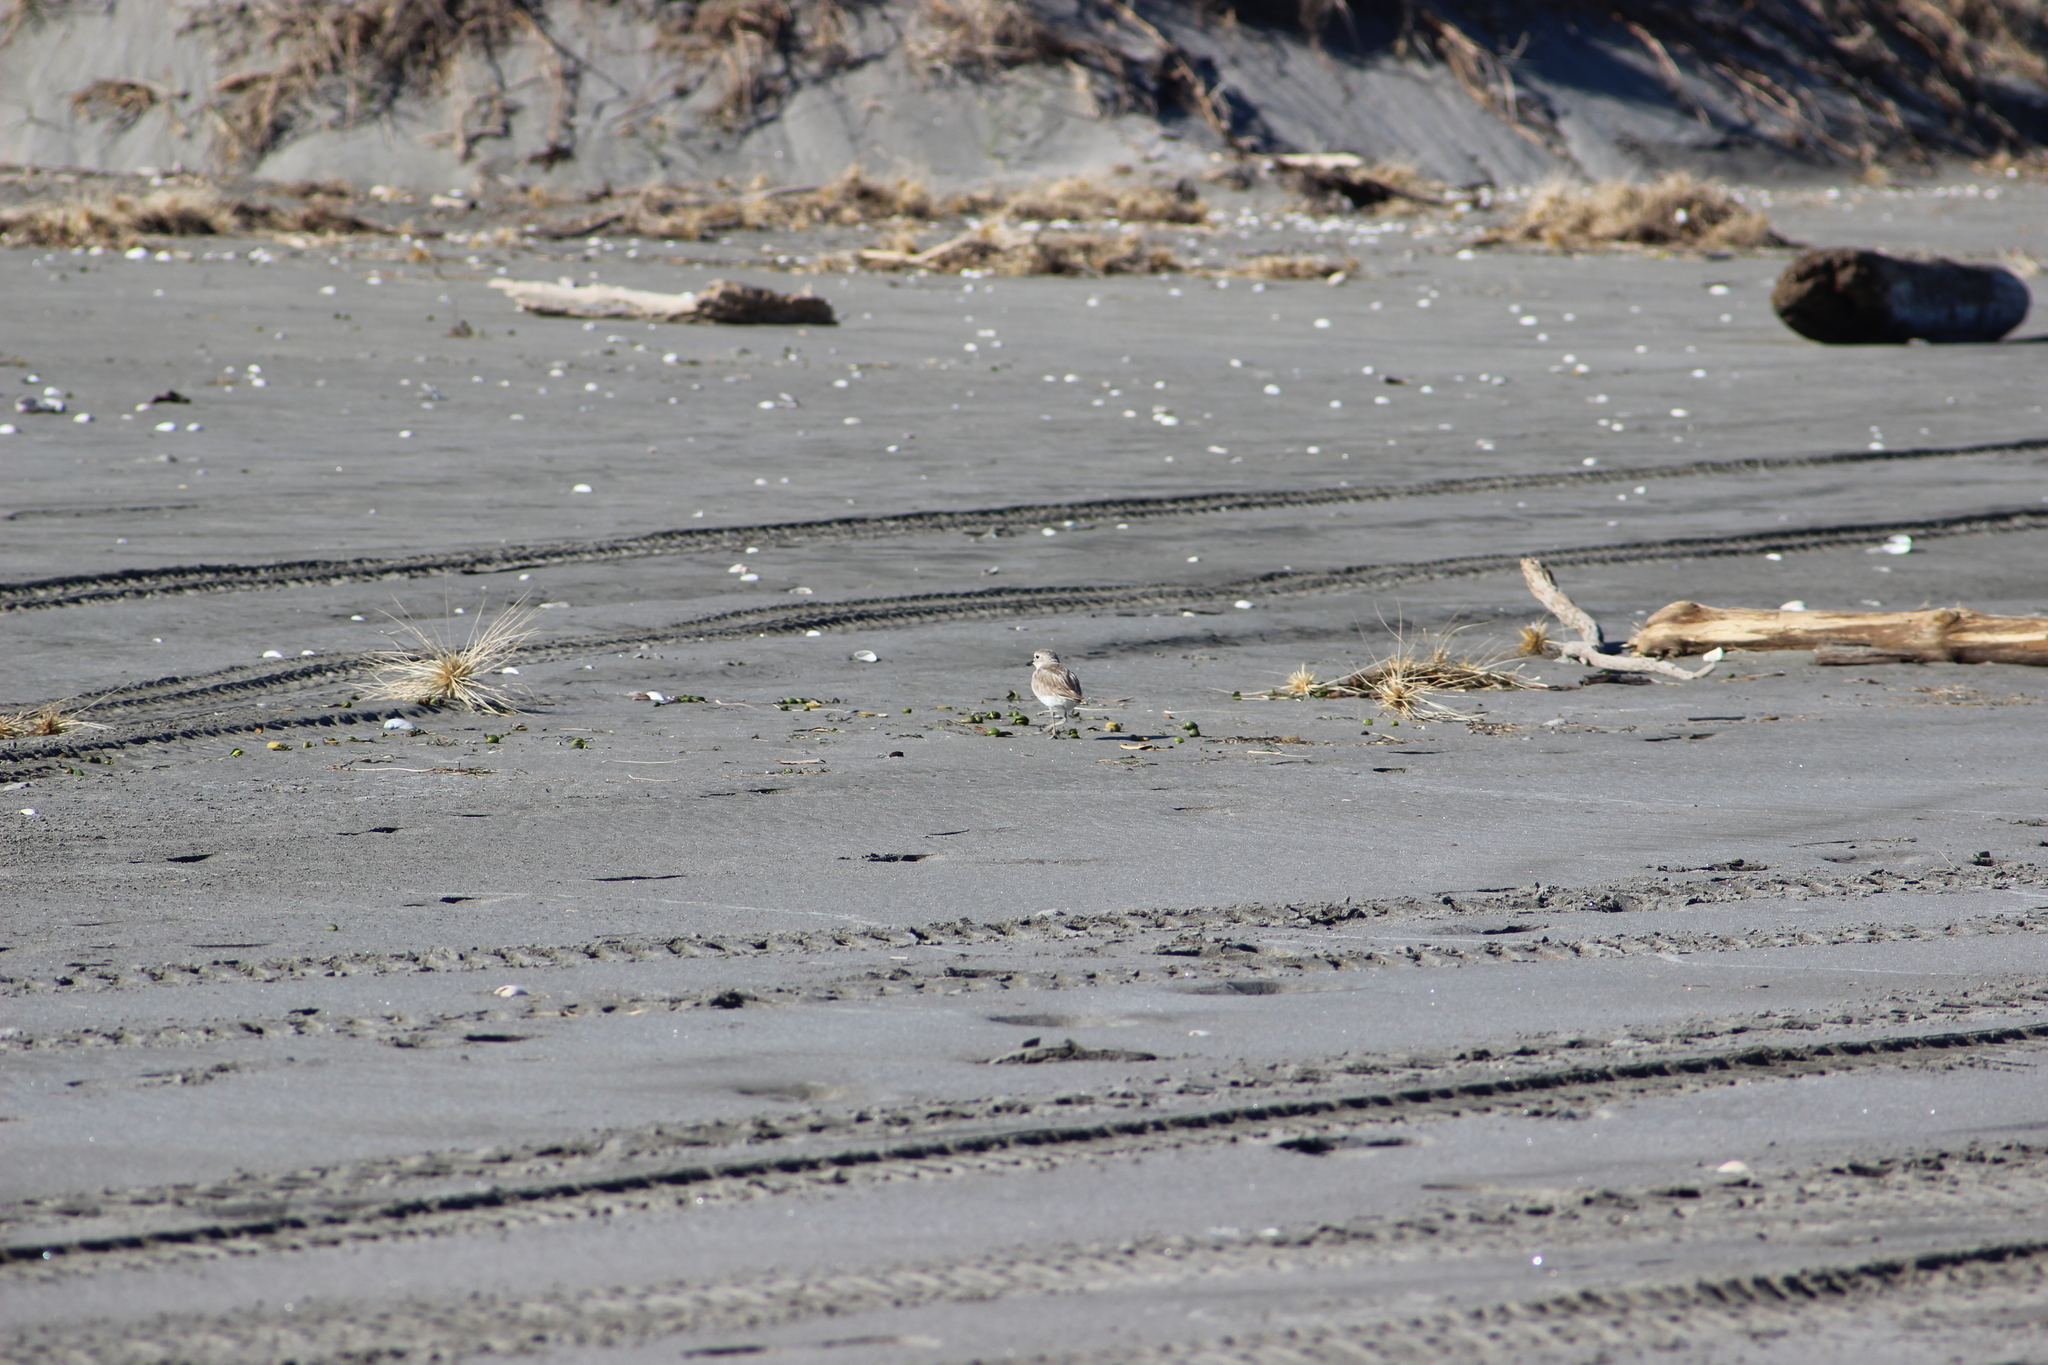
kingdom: Animalia
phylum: Chordata
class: Aves
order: Charadriiformes
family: Charadriidae
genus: Anarhynchus
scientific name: Anarhynchus
